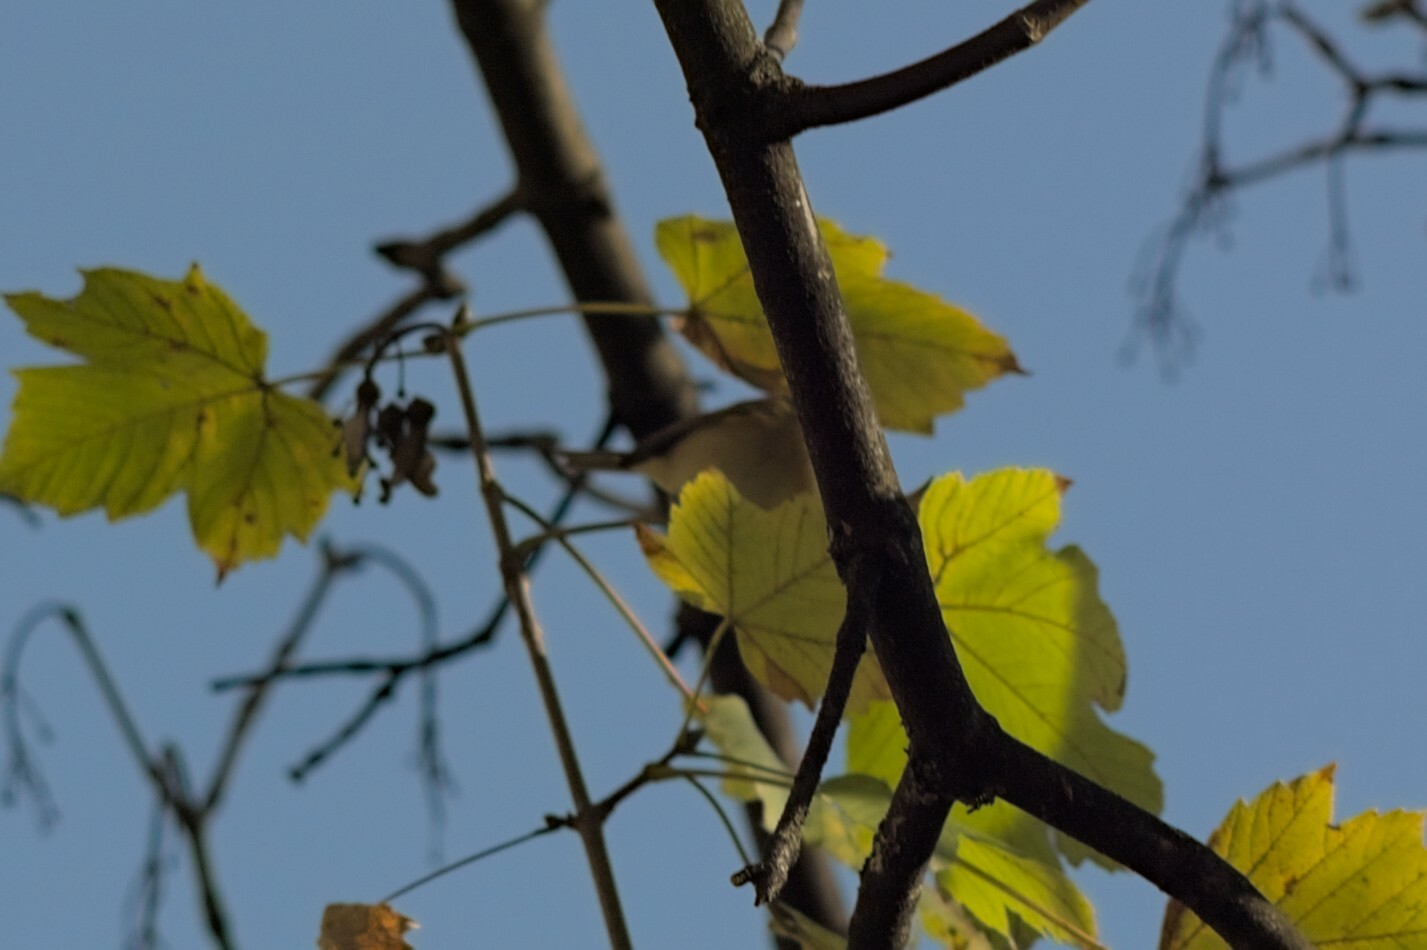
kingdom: Animalia
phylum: Chordata
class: Aves
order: Passeriformes
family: Phylloscopidae
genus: Phylloscopus
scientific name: Phylloscopus collybita
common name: Common chiffchaff
